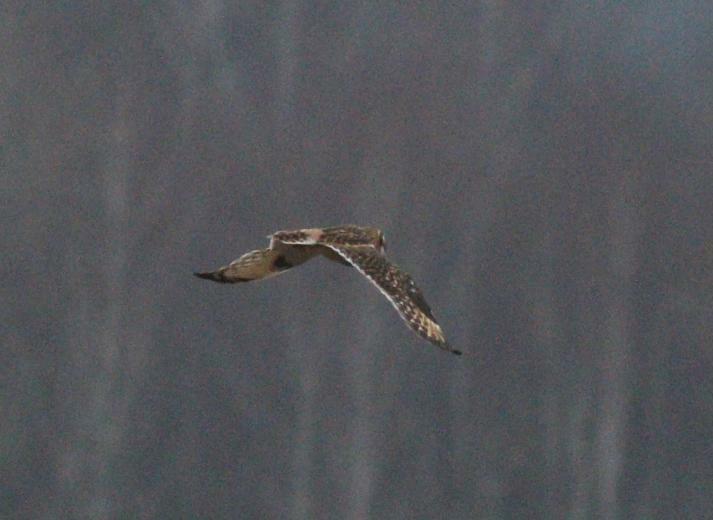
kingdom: Animalia
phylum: Chordata
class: Aves
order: Strigiformes
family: Strigidae
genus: Asio
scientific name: Asio flammeus
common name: Short-eared owl
